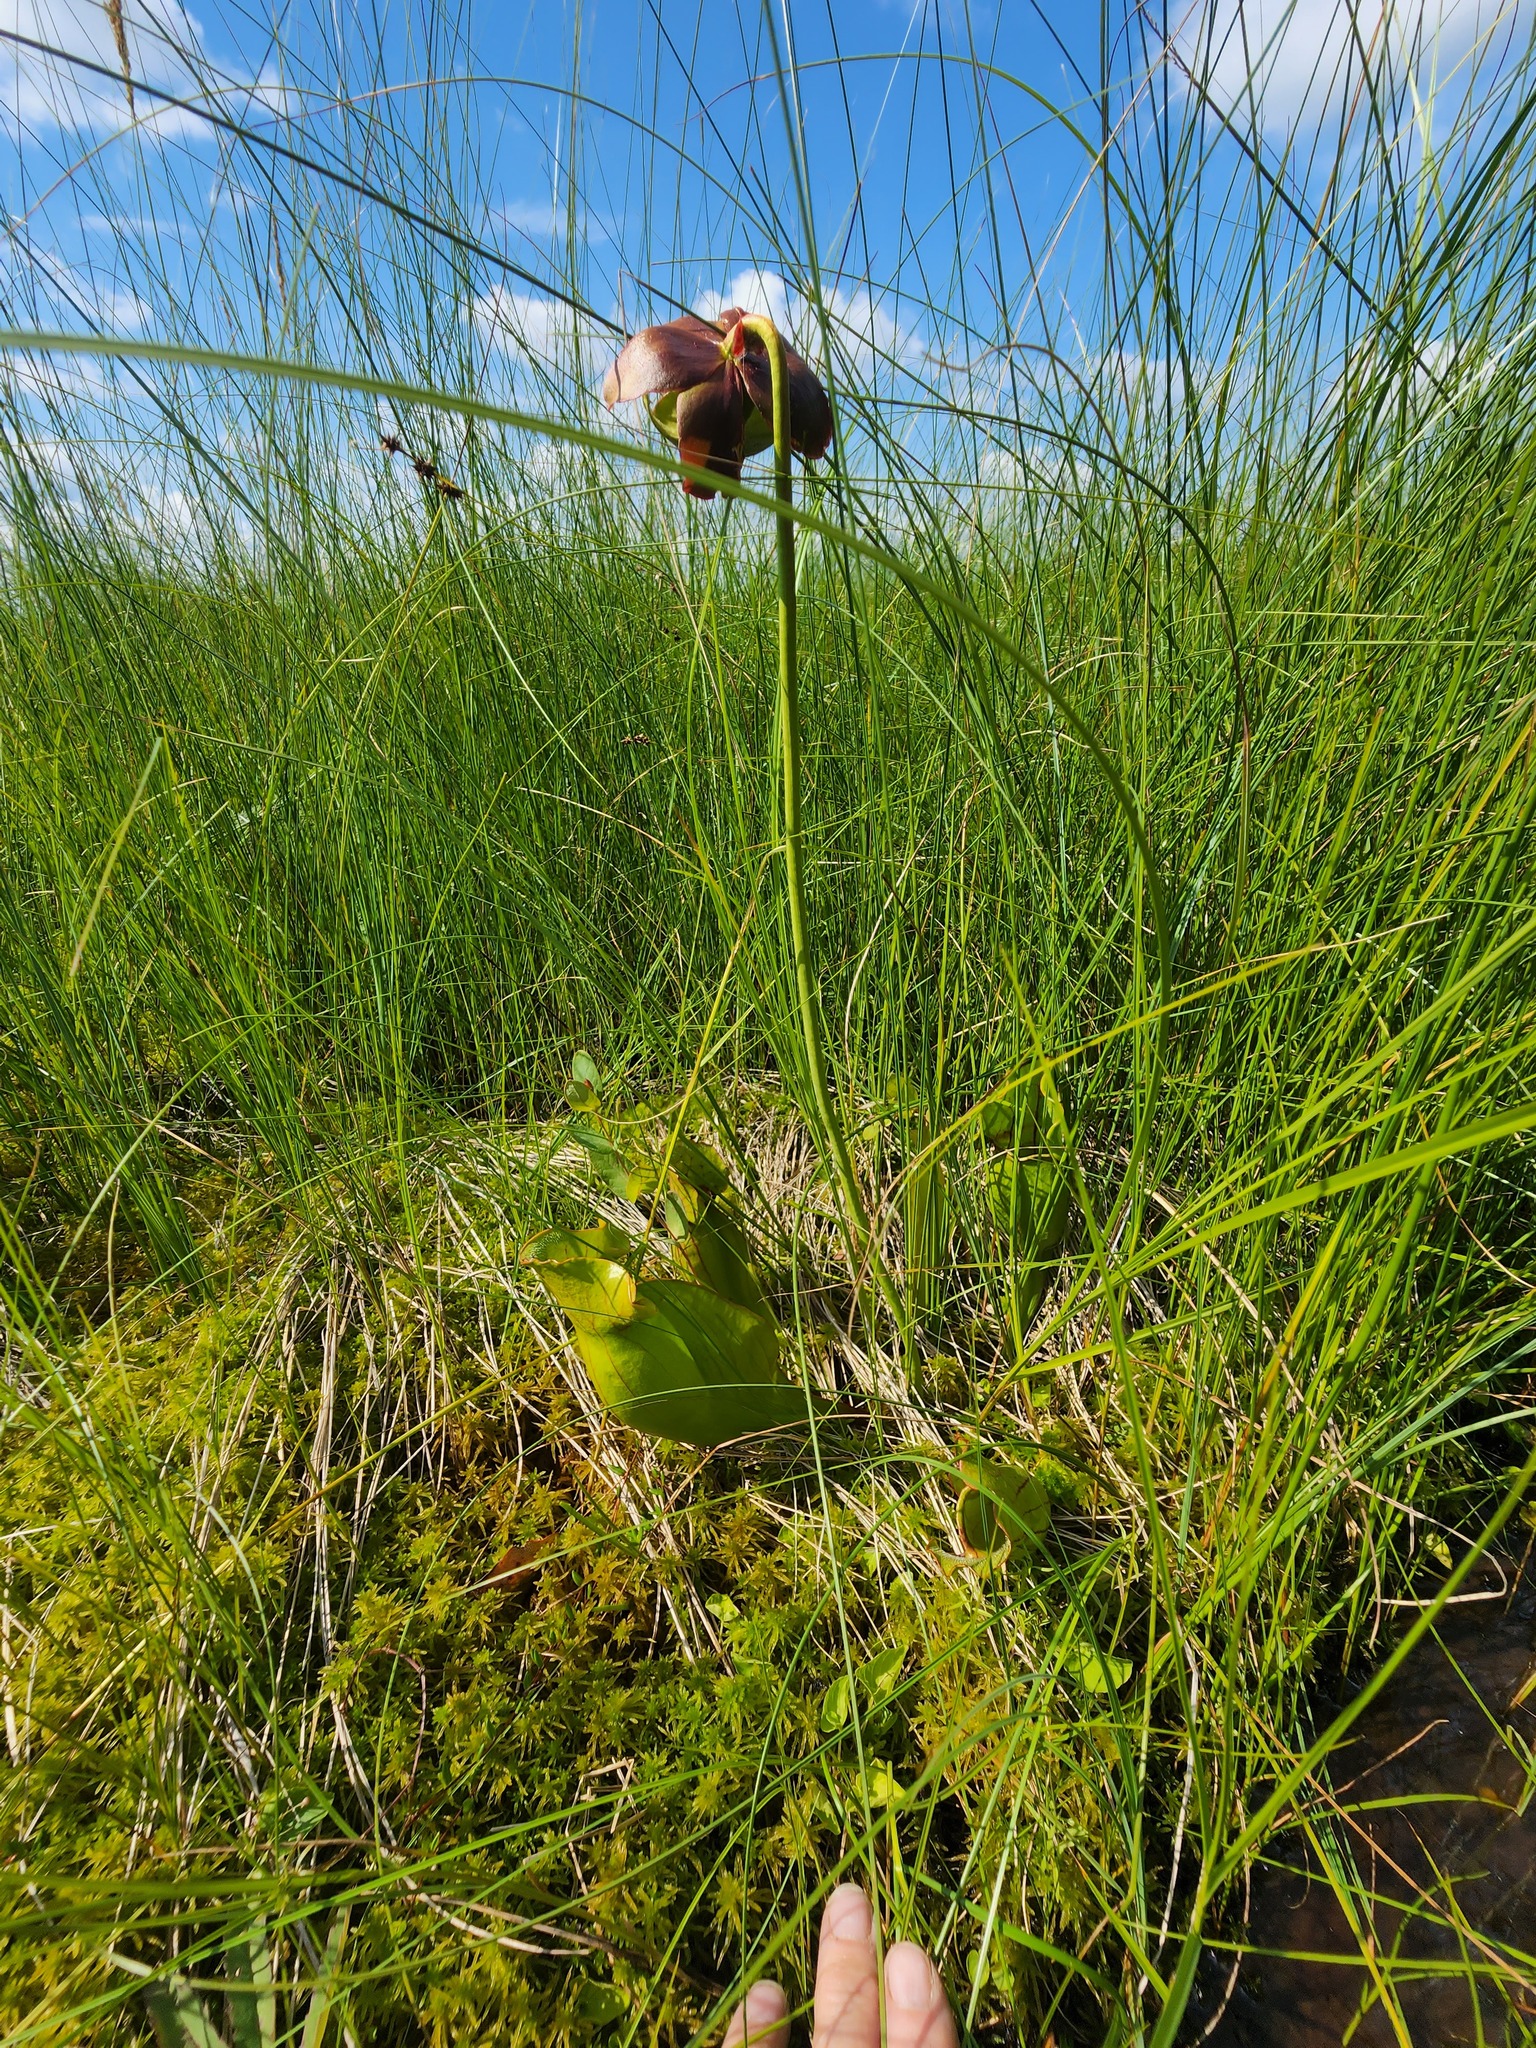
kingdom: Plantae
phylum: Tracheophyta
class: Magnoliopsida
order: Ericales
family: Sarraceniaceae
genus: Sarracenia
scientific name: Sarracenia purpurea
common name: Pitcherplant
